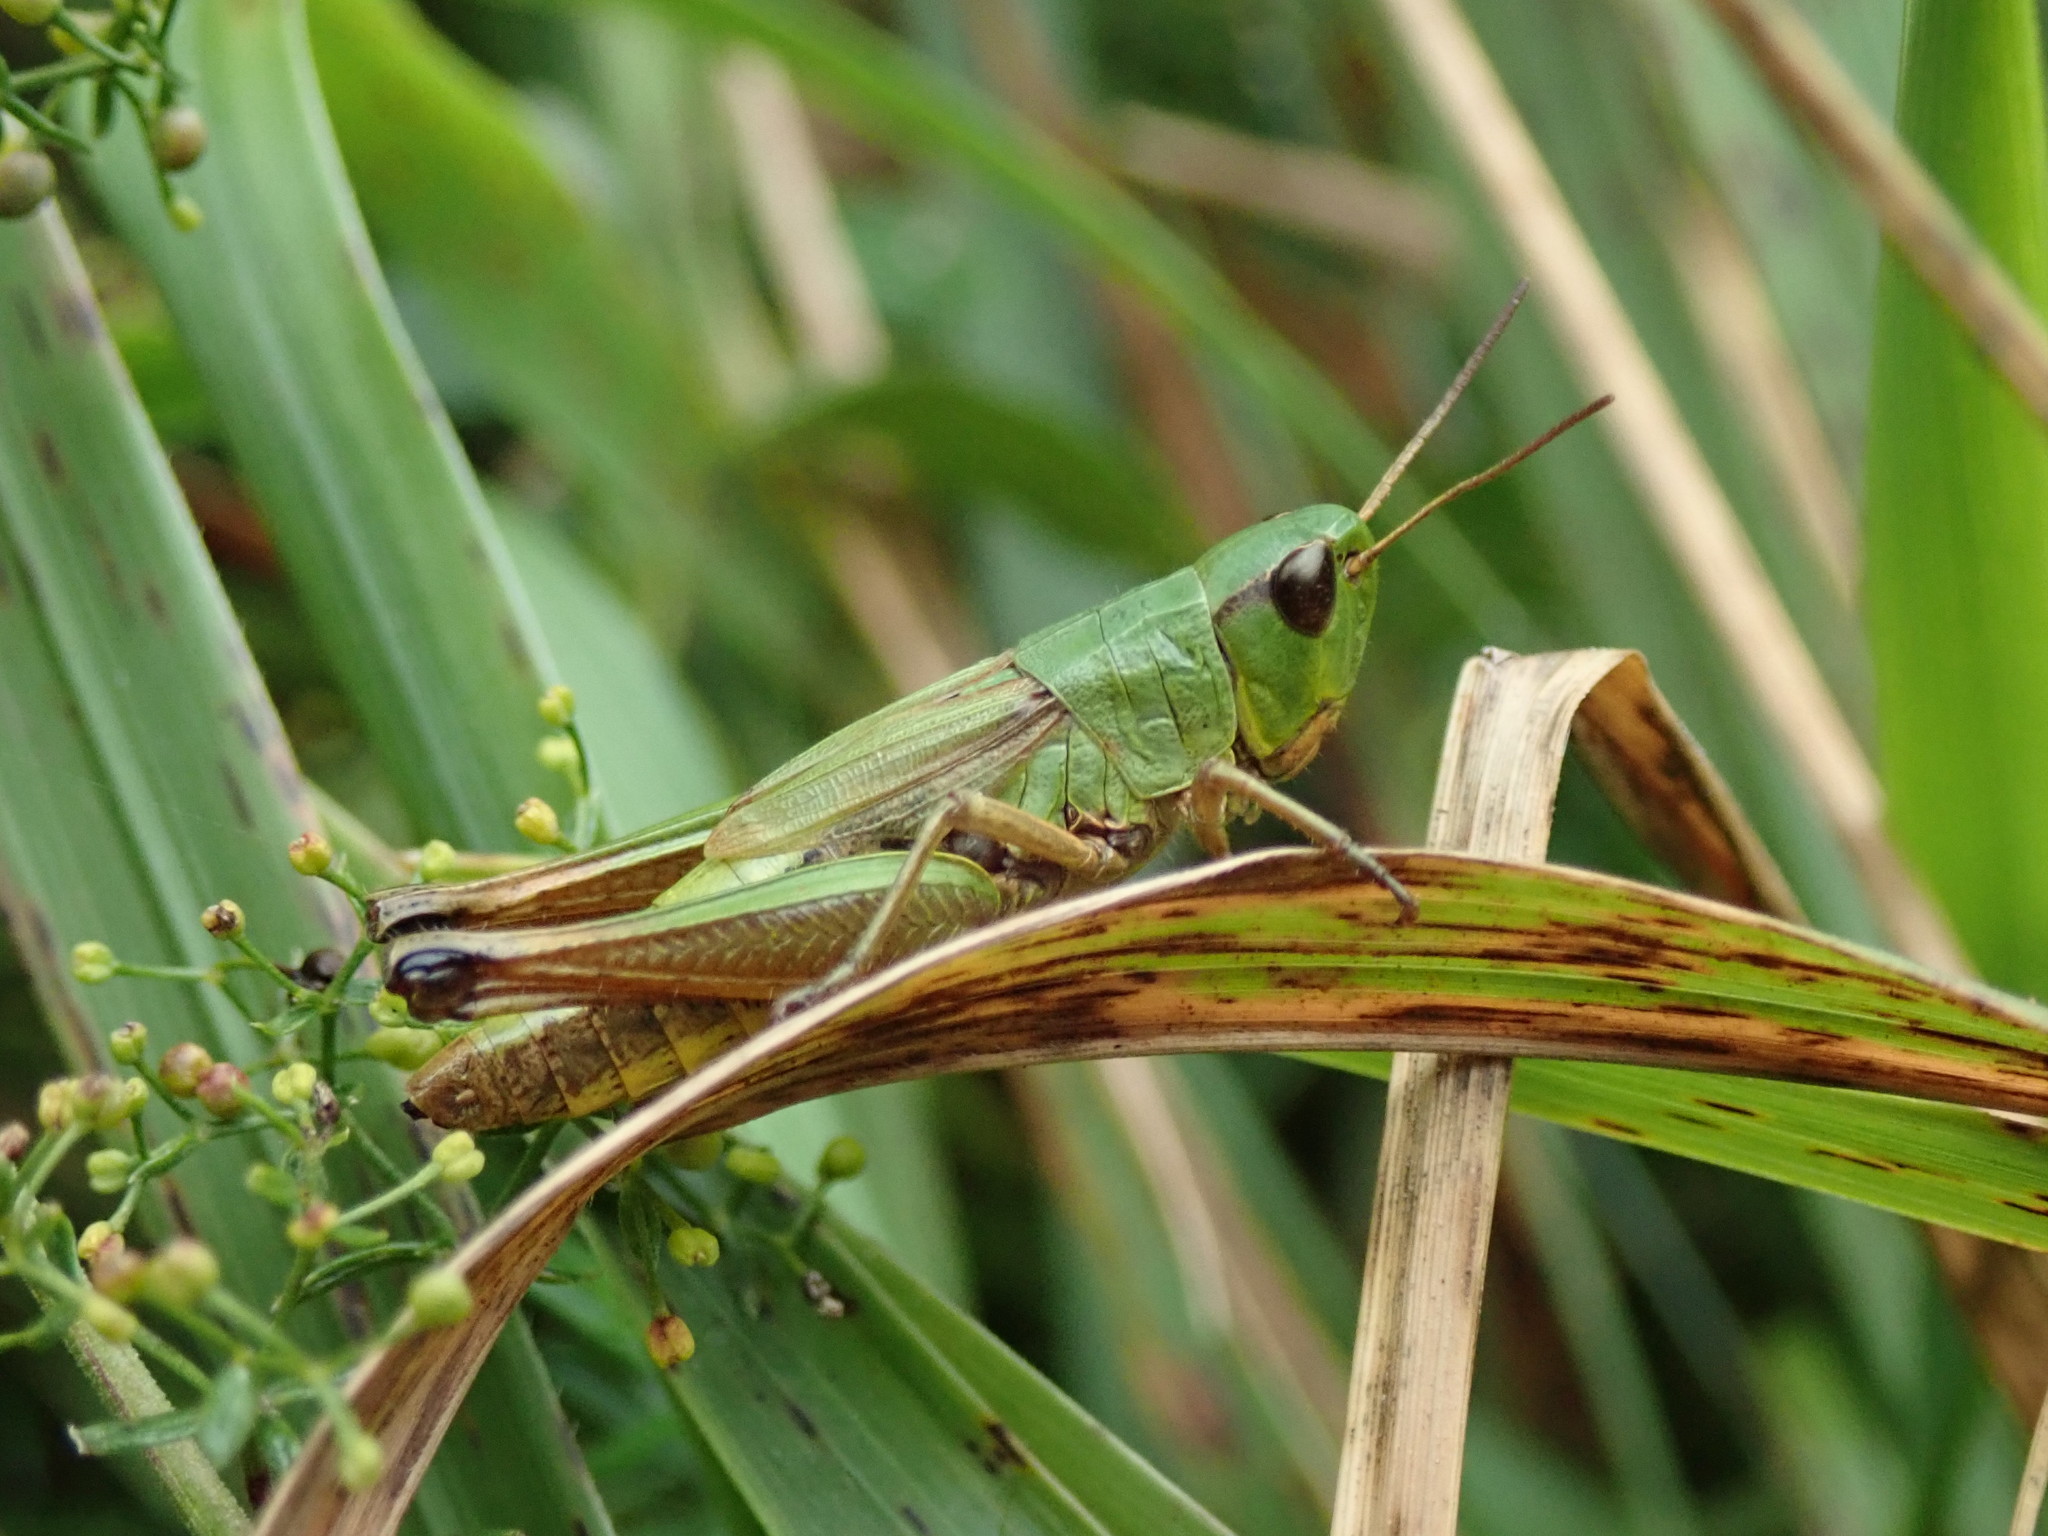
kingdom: Animalia
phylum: Arthropoda
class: Insecta
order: Orthoptera
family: Acrididae
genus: Pseudochorthippus
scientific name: Pseudochorthippus parallelus
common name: Meadow grasshopper
